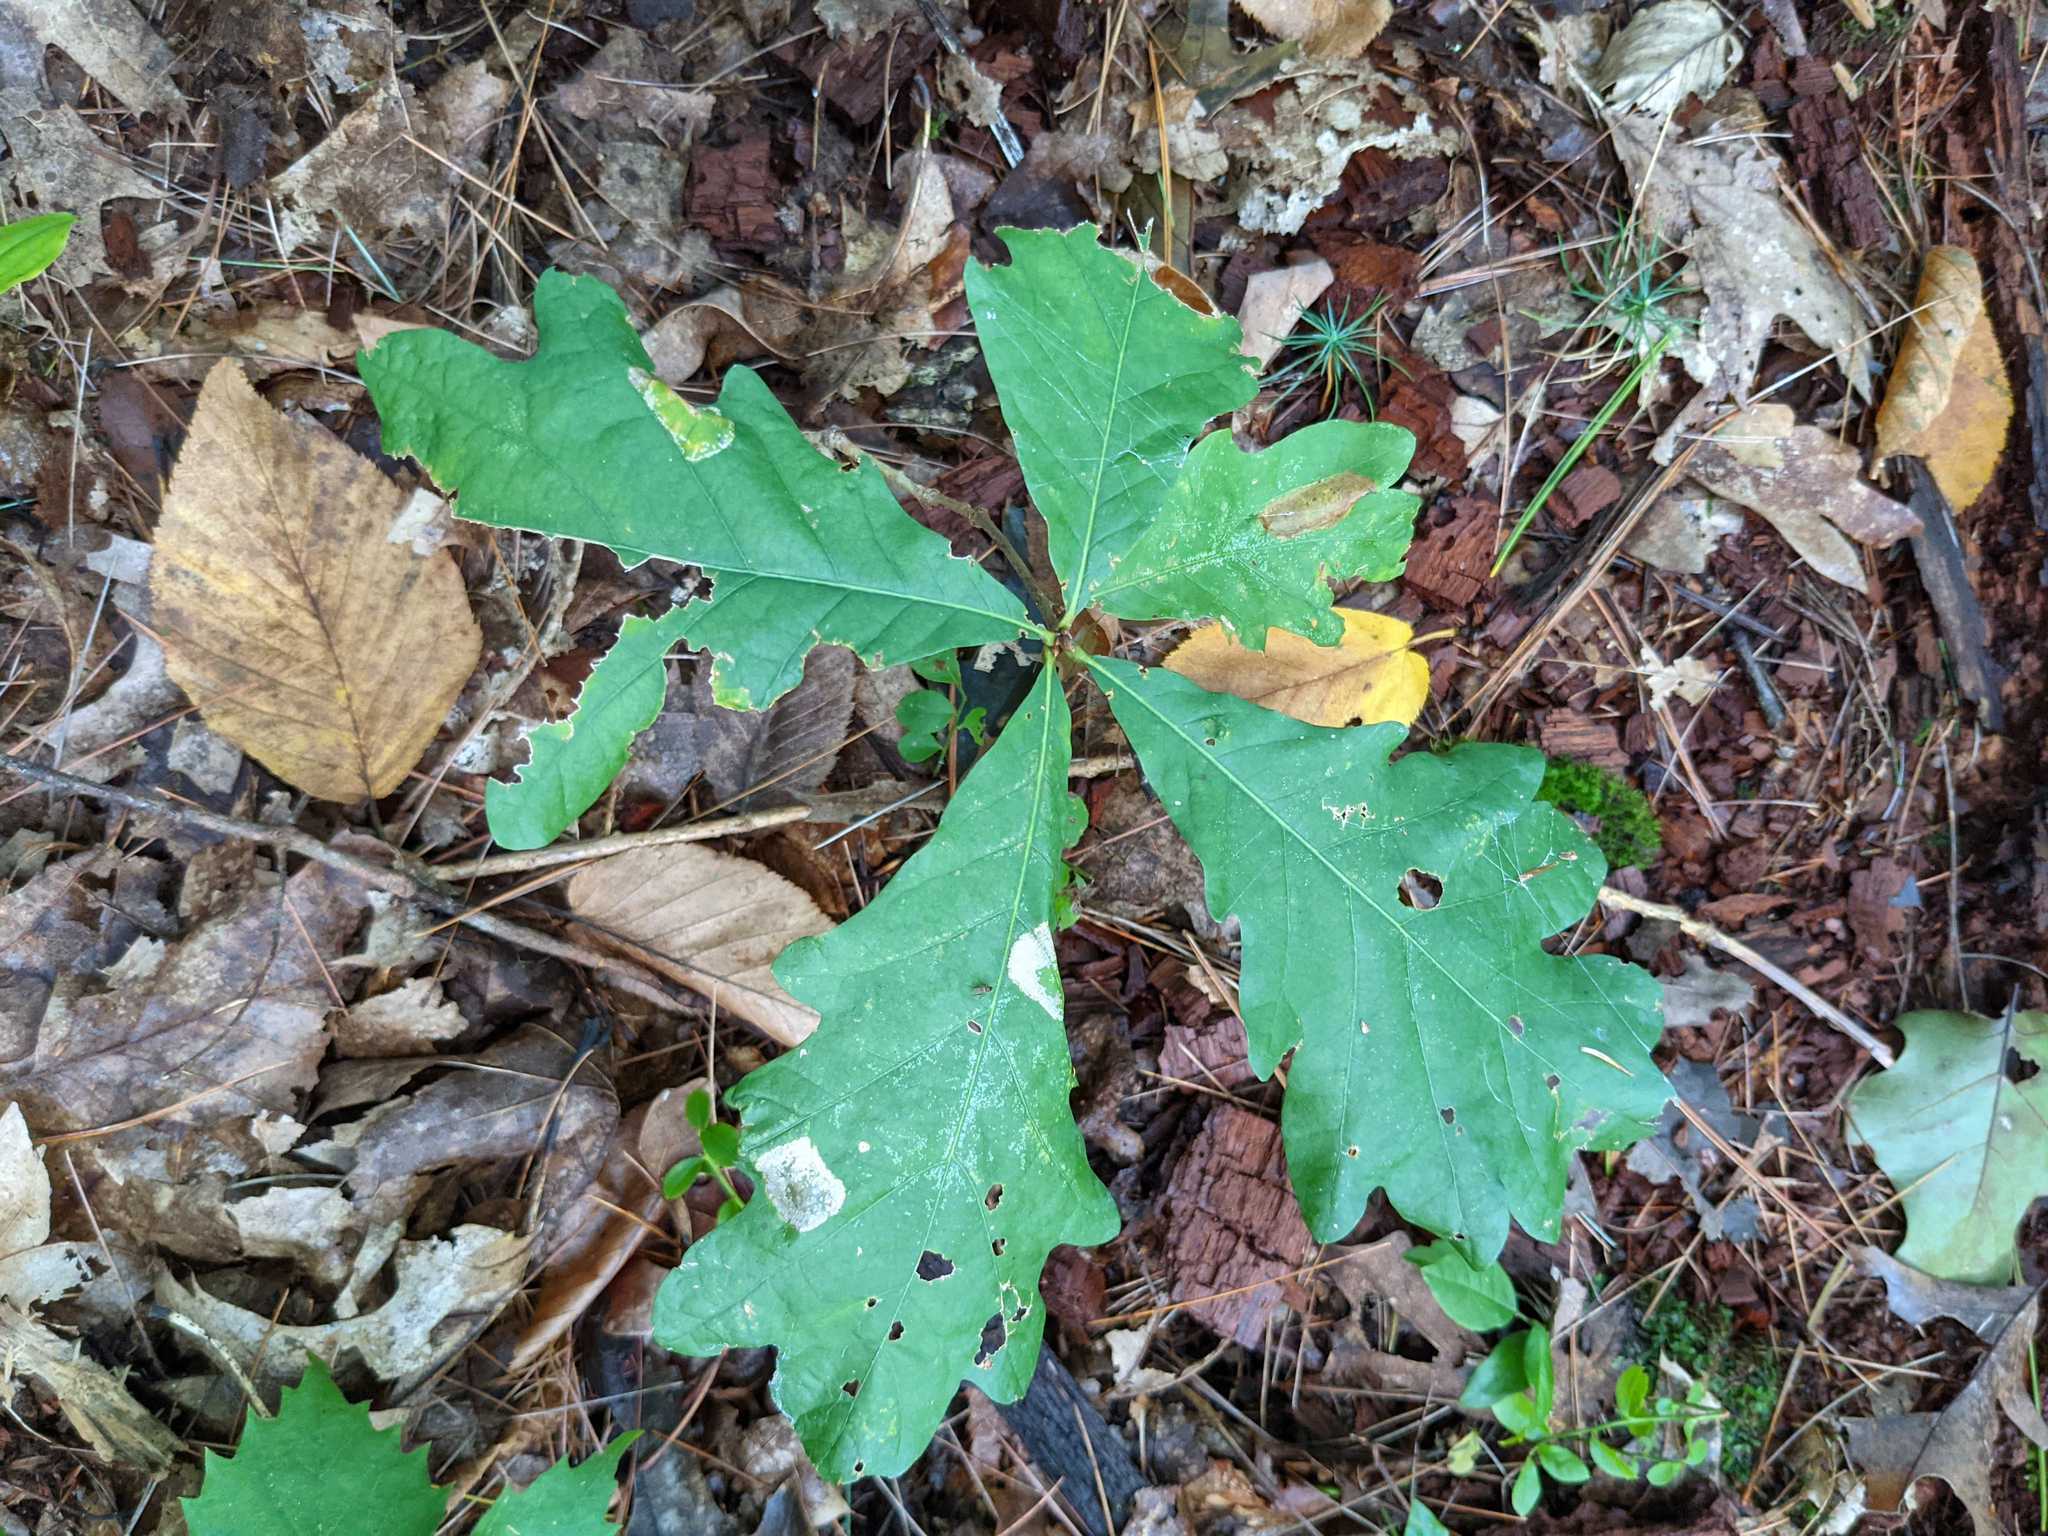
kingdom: Plantae
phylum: Tracheophyta
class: Magnoliopsida
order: Fagales
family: Fagaceae
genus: Quercus
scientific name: Quercus alba
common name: White oak
